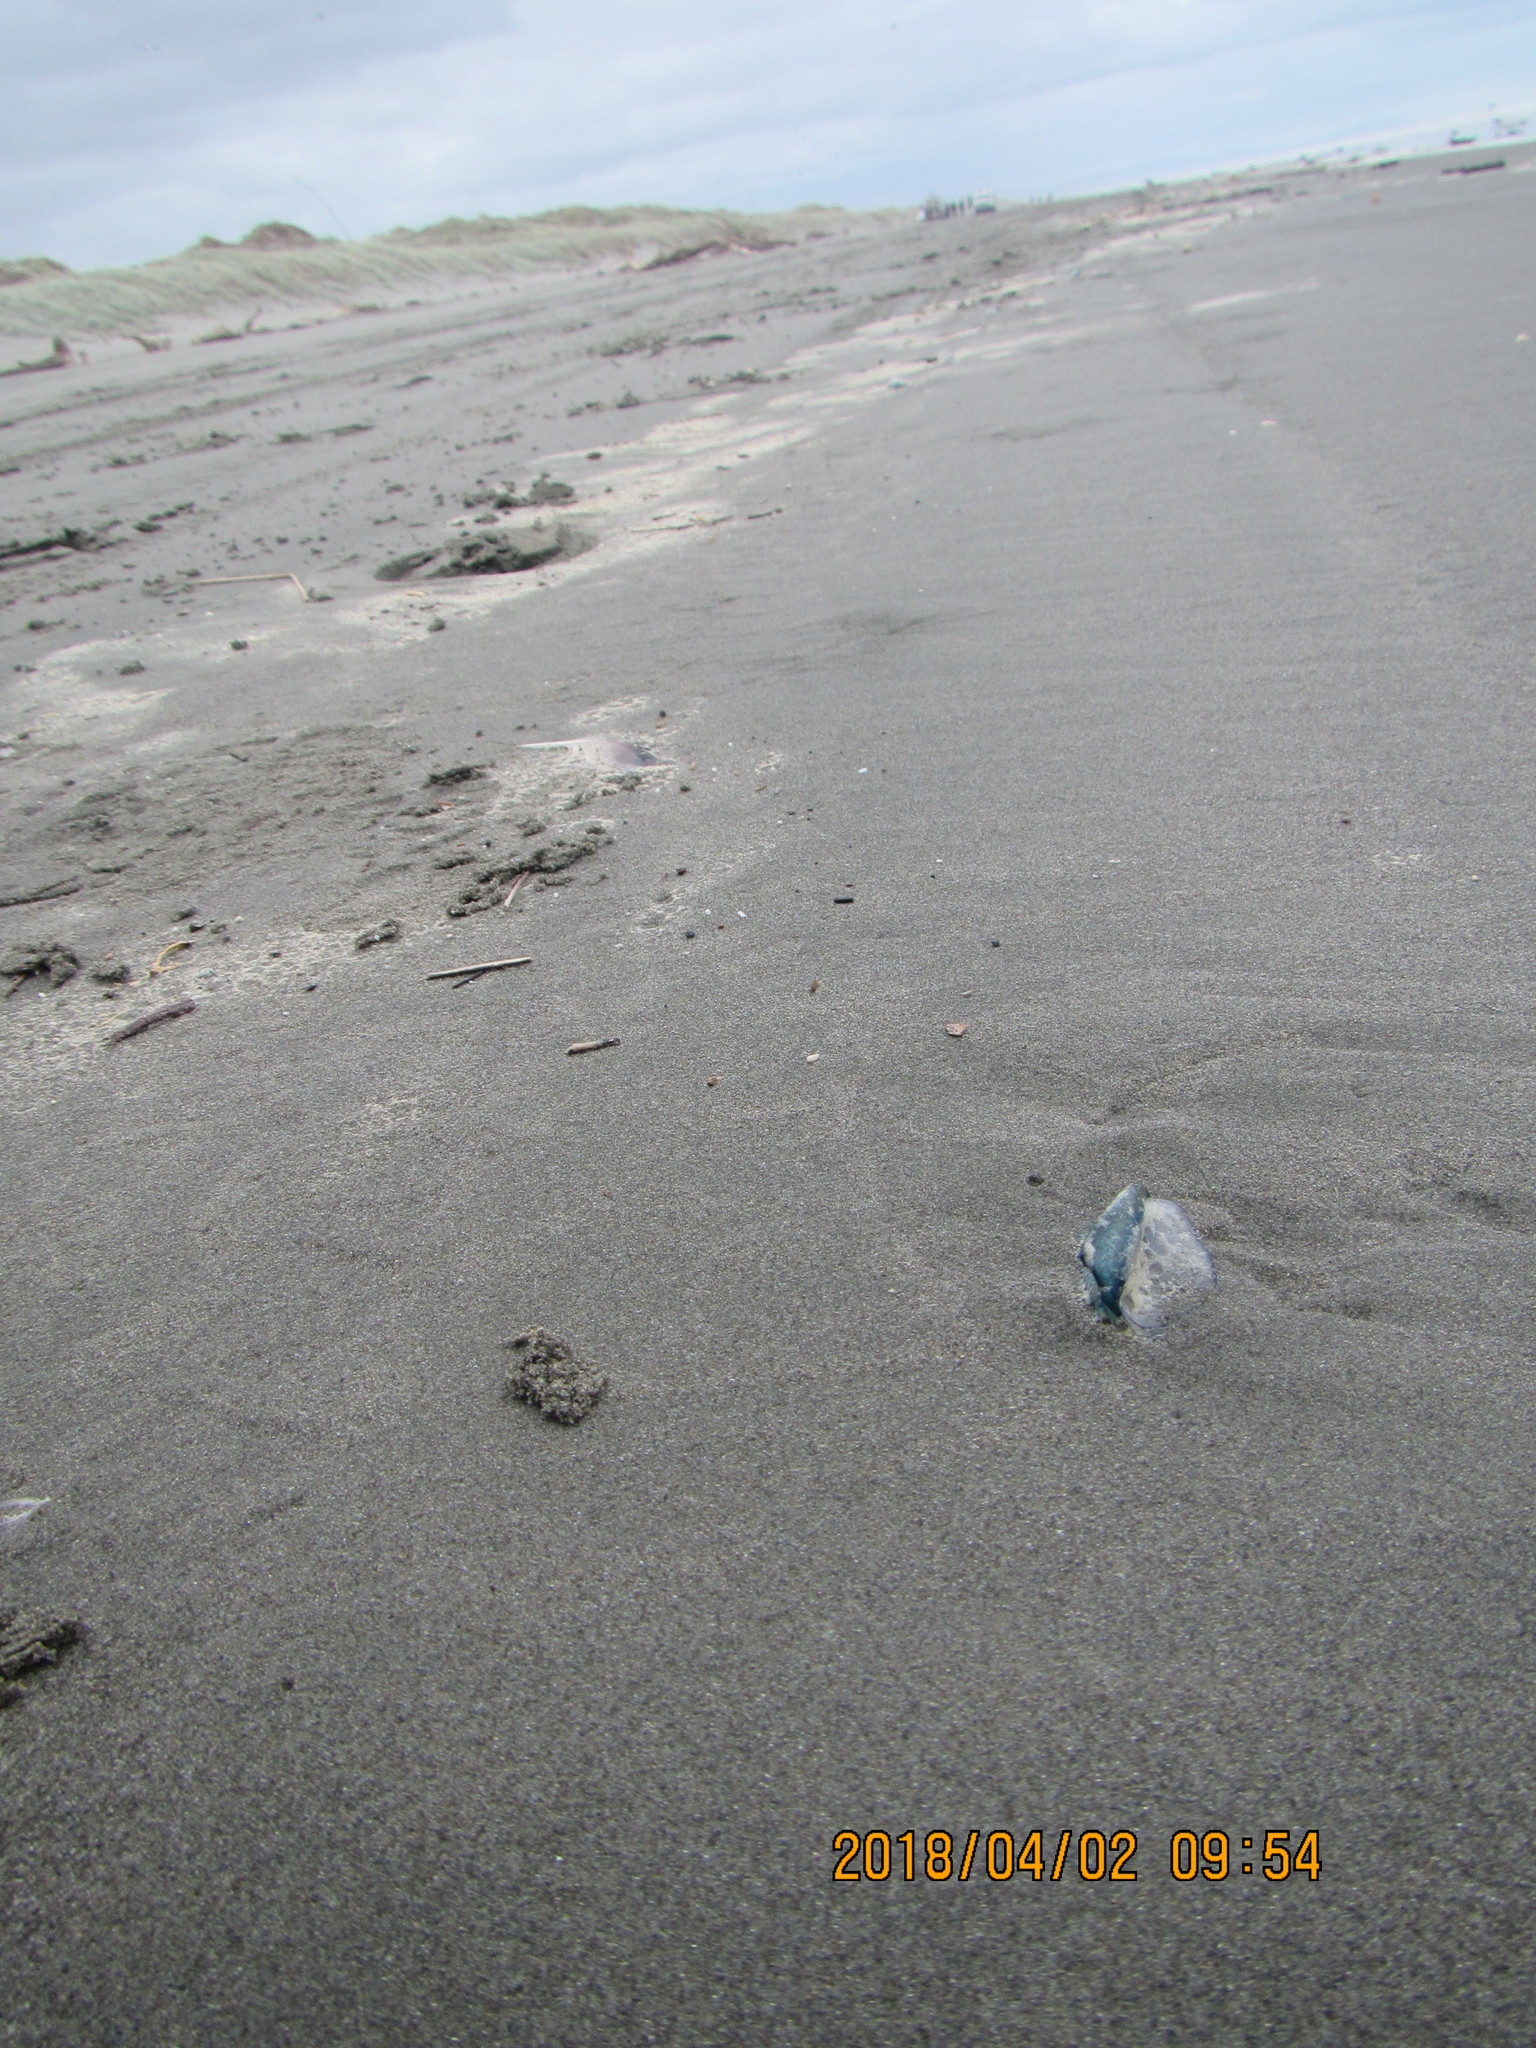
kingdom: Animalia
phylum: Cnidaria
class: Hydrozoa
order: Anthoathecata
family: Porpitidae
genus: Velella
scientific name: Velella velella
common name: By-the-wind-sailor
